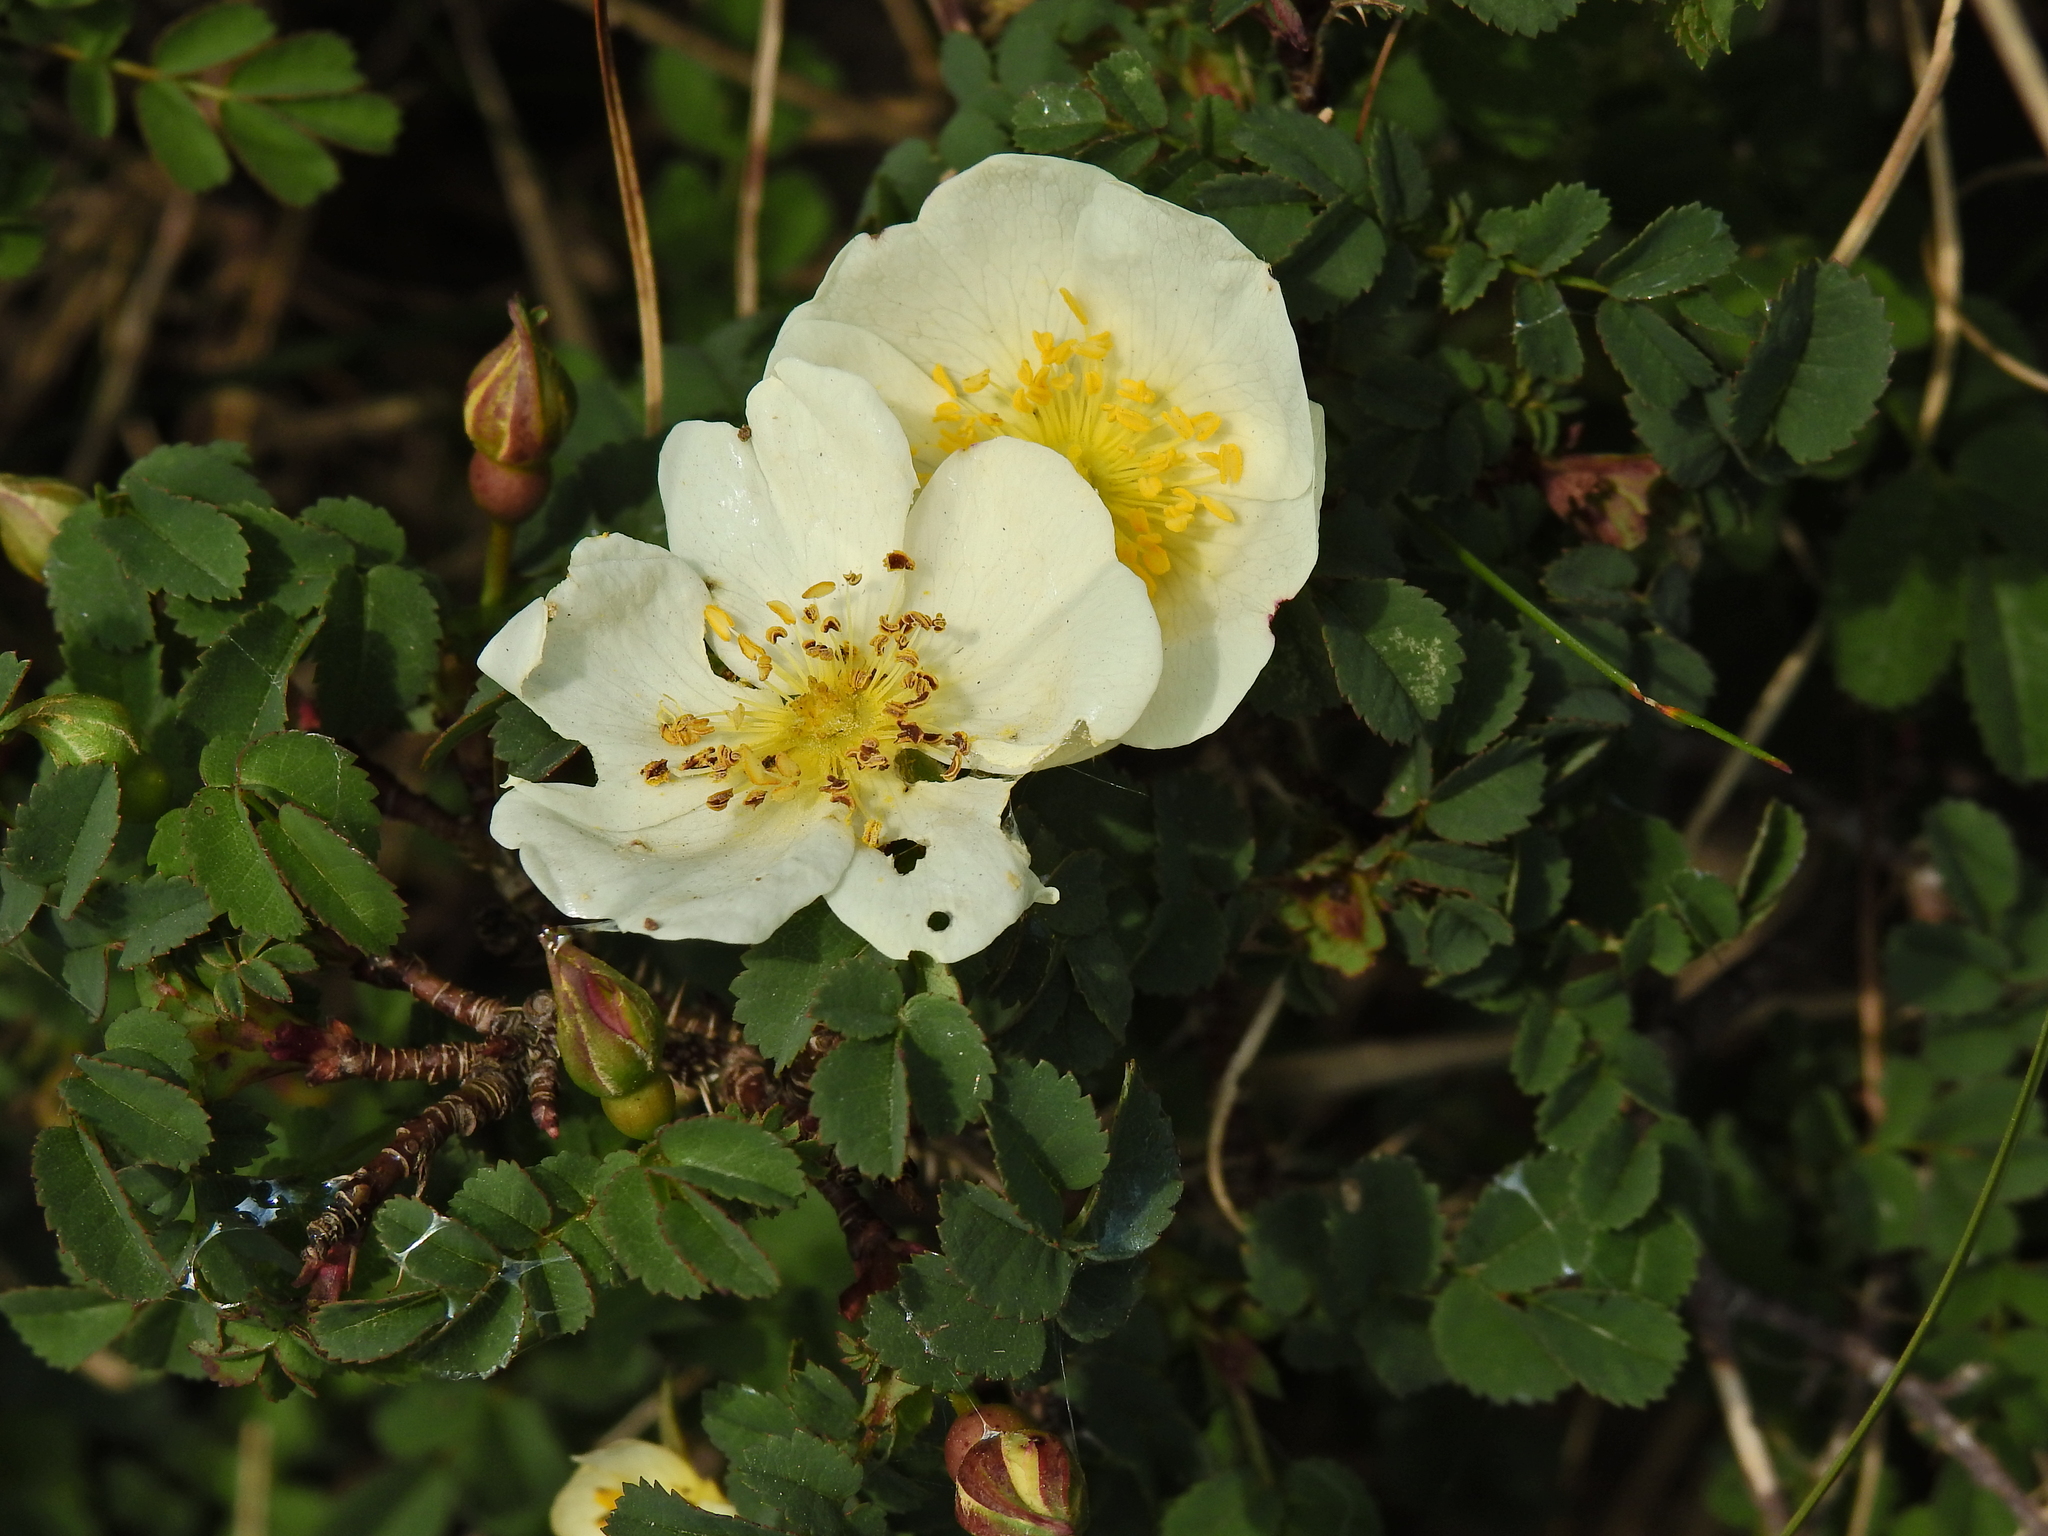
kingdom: Plantae
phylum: Tracheophyta
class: Magnoliopsida
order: Rosales
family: Rosaceae
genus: Rosa
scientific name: Rosa spinosissima
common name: Burnet rose
